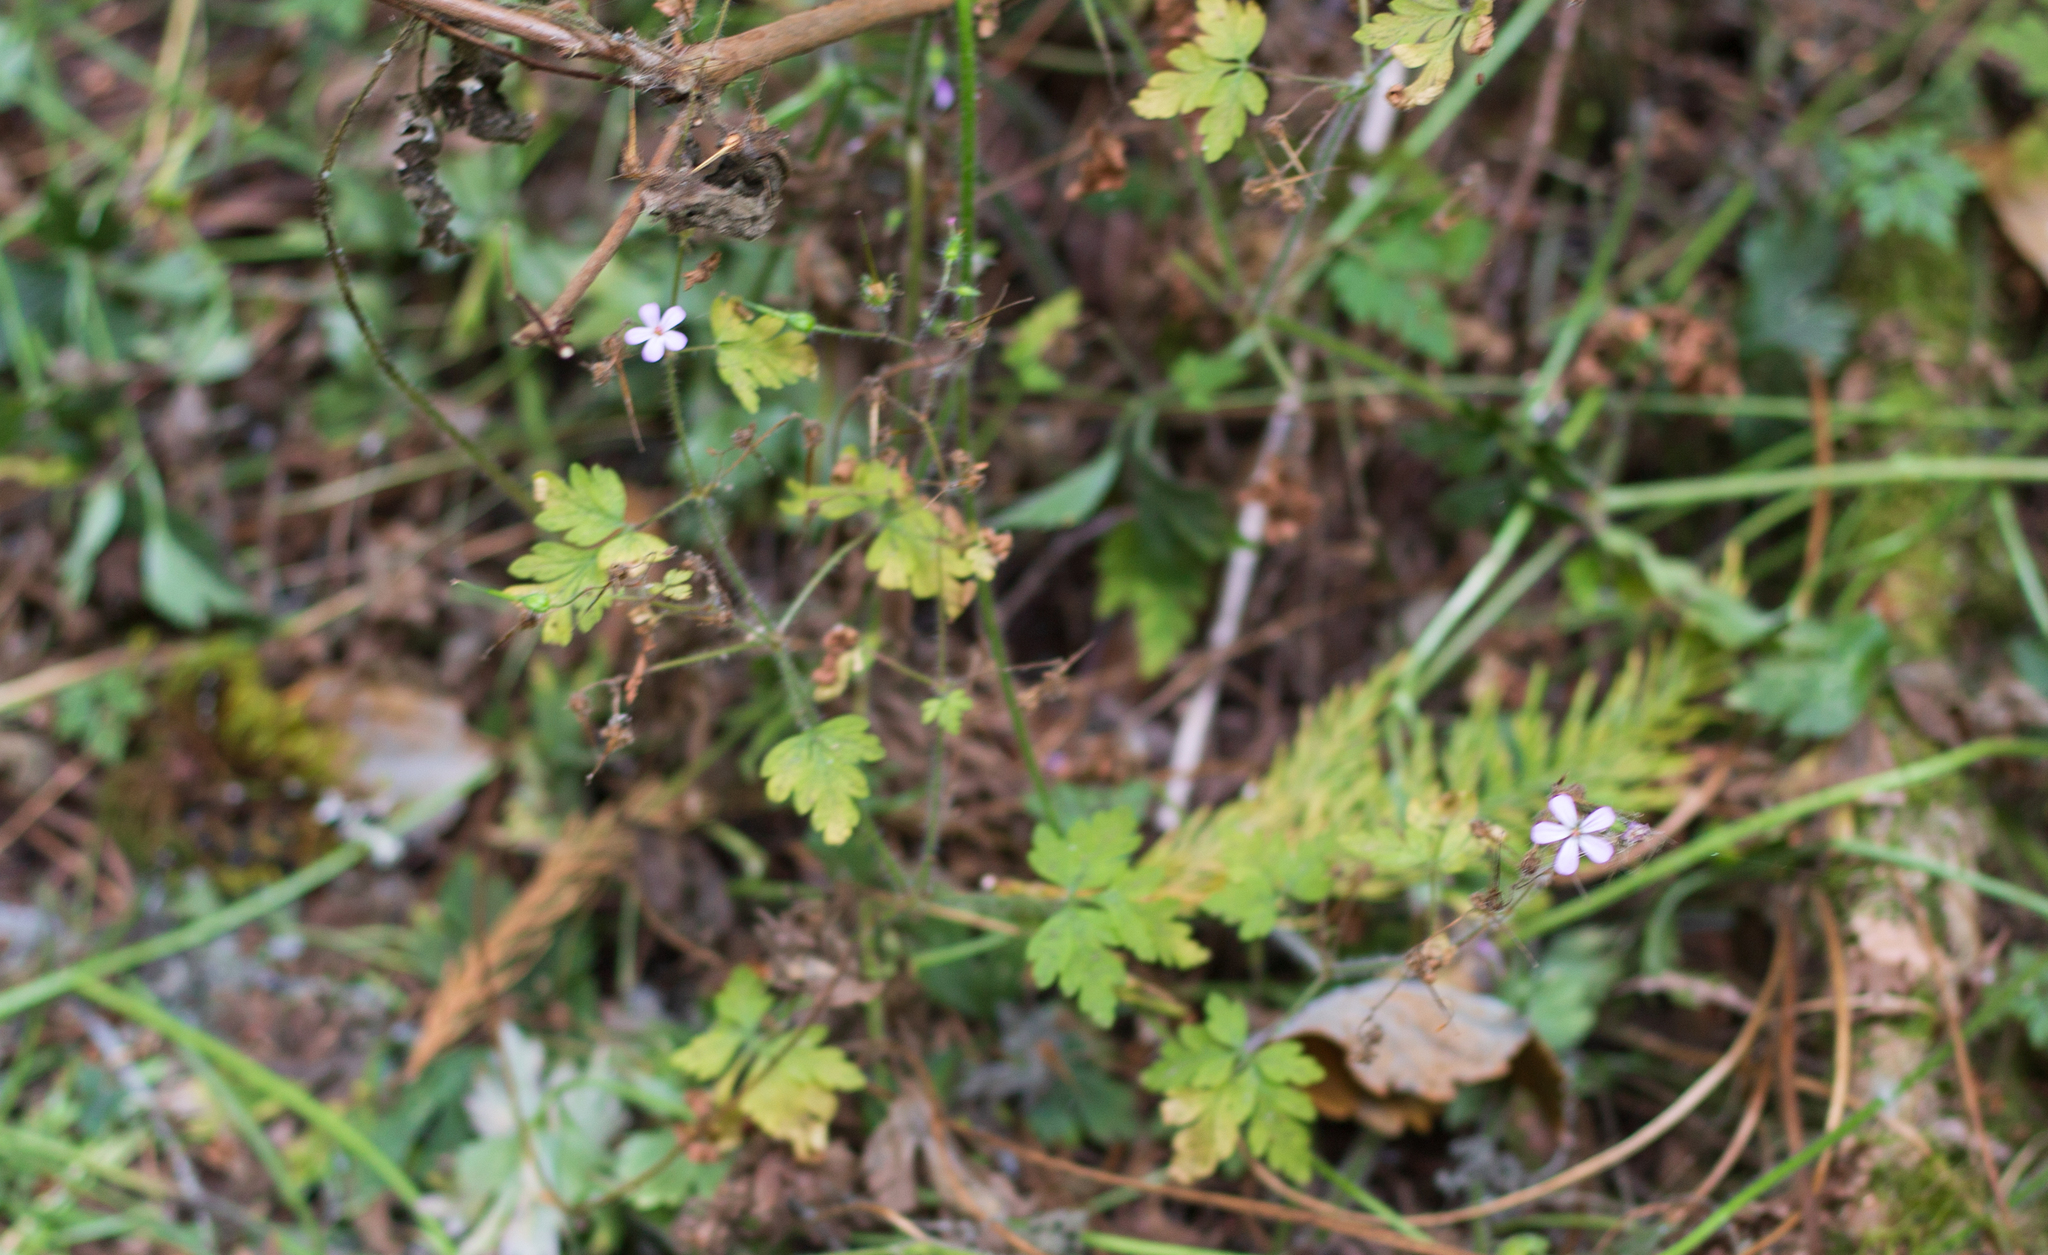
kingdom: Plantae
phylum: Tracheophyta
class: Magnoliopsida
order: Geraniales
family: Geraniaceae
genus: Geranium
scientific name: Geranium robertianum
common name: Herb-robert
